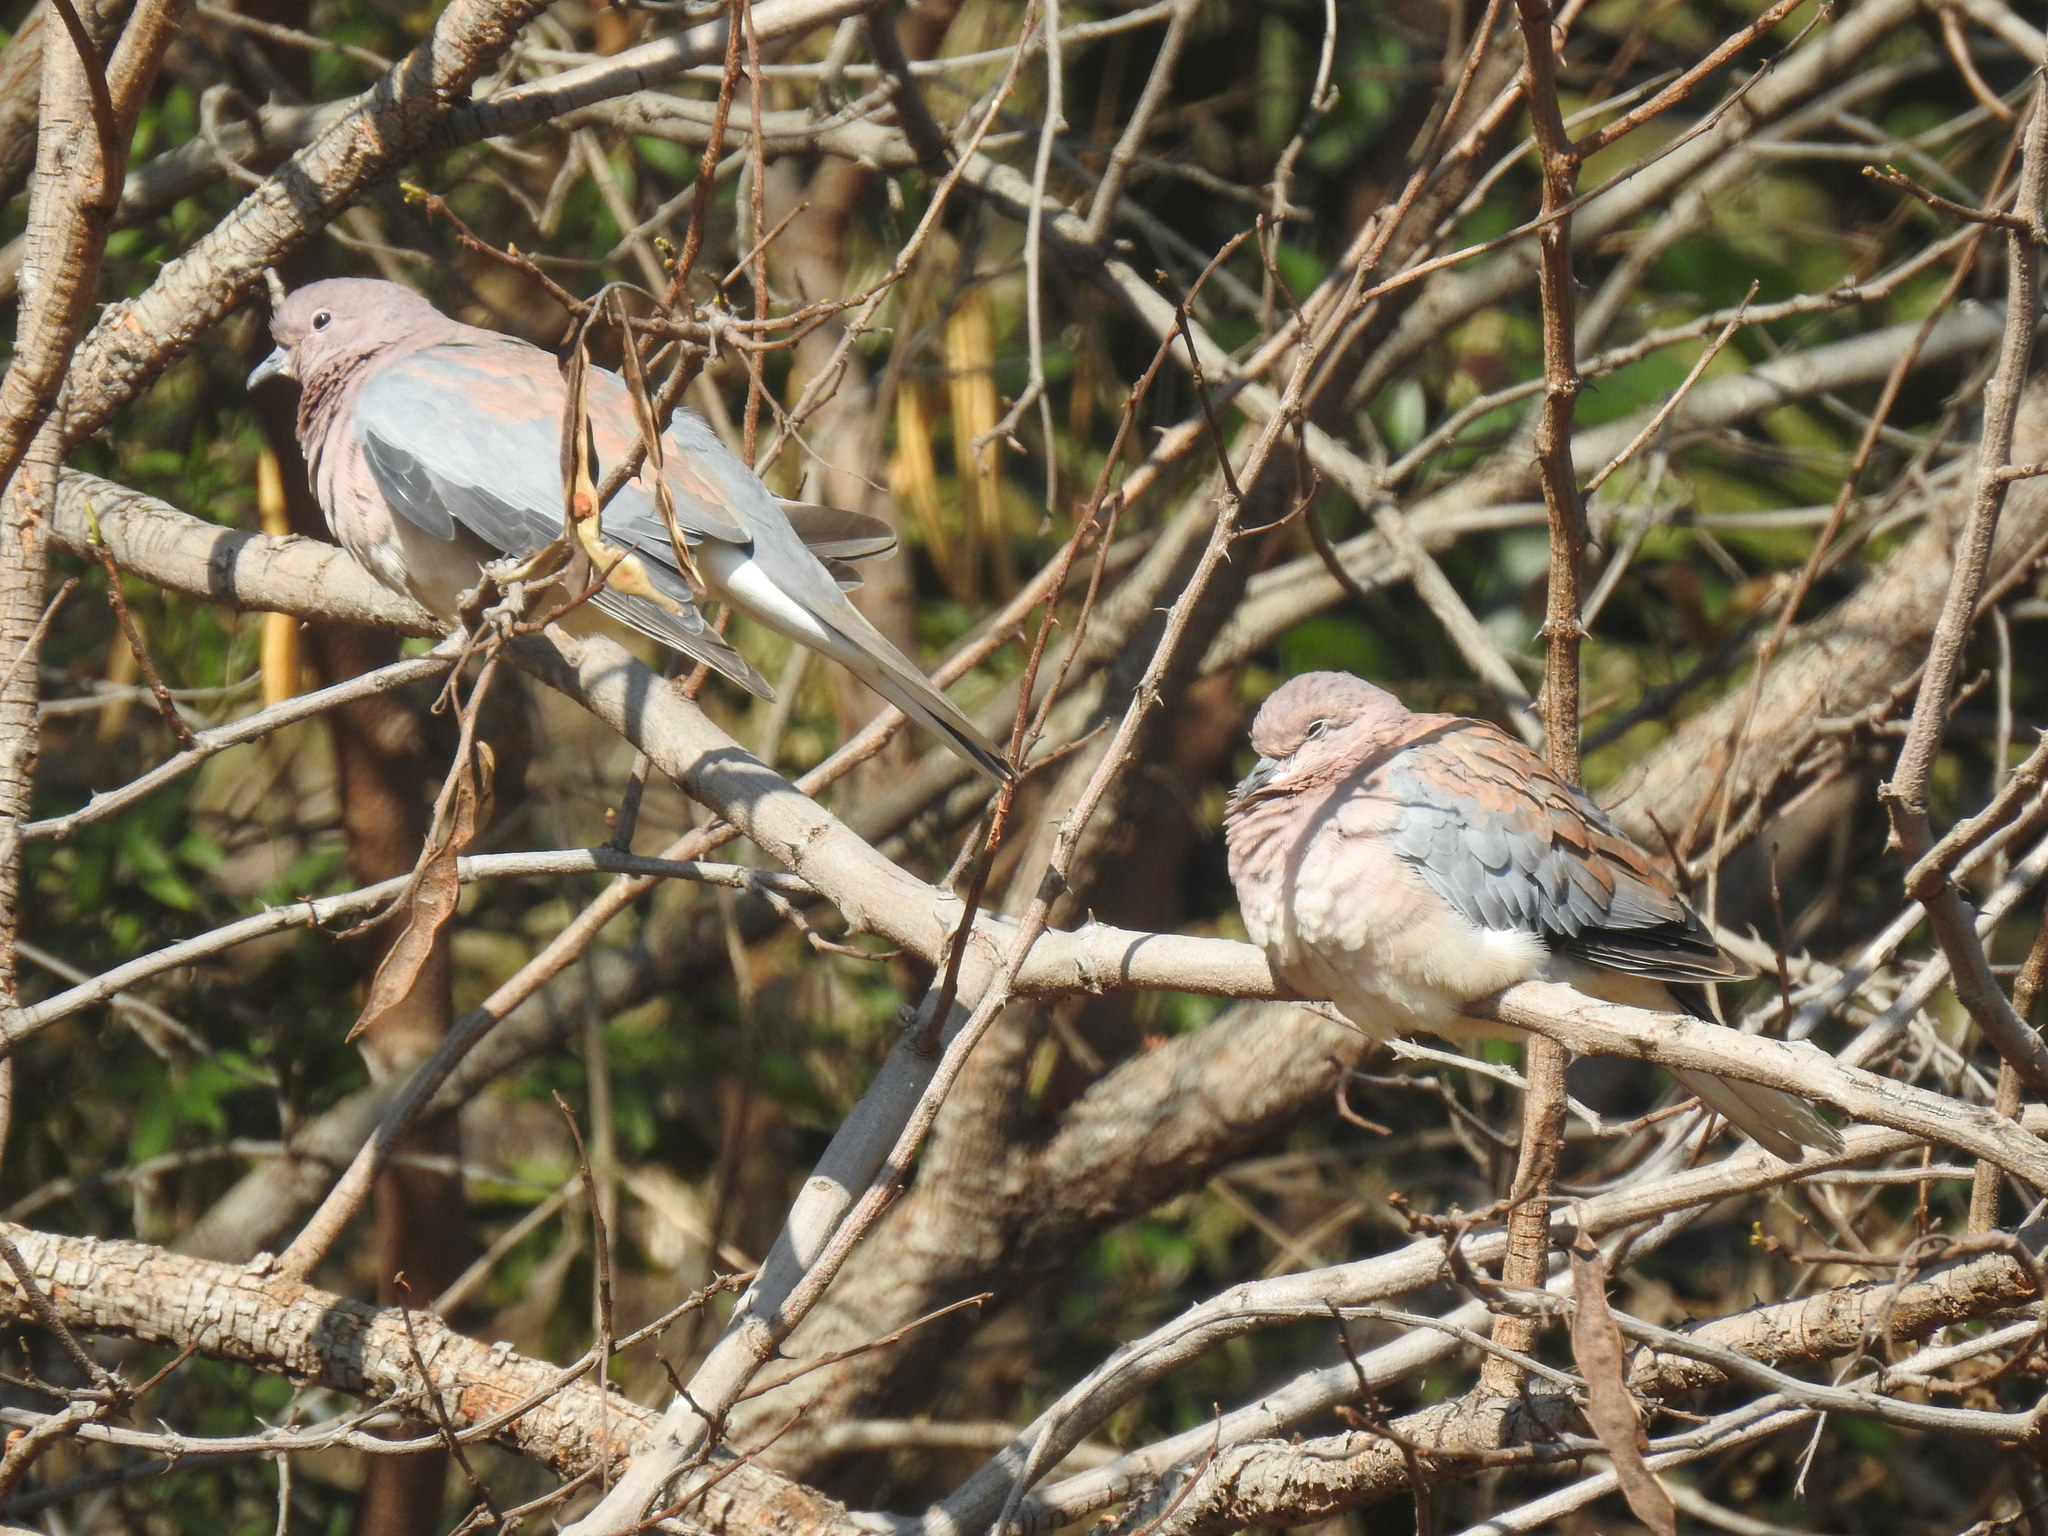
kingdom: Animalia
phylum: Chordata
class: Aves
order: Columbiformes
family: Columbidae
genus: Spilopelia
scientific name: Spilopelia senegalensis
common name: Laughing dove
